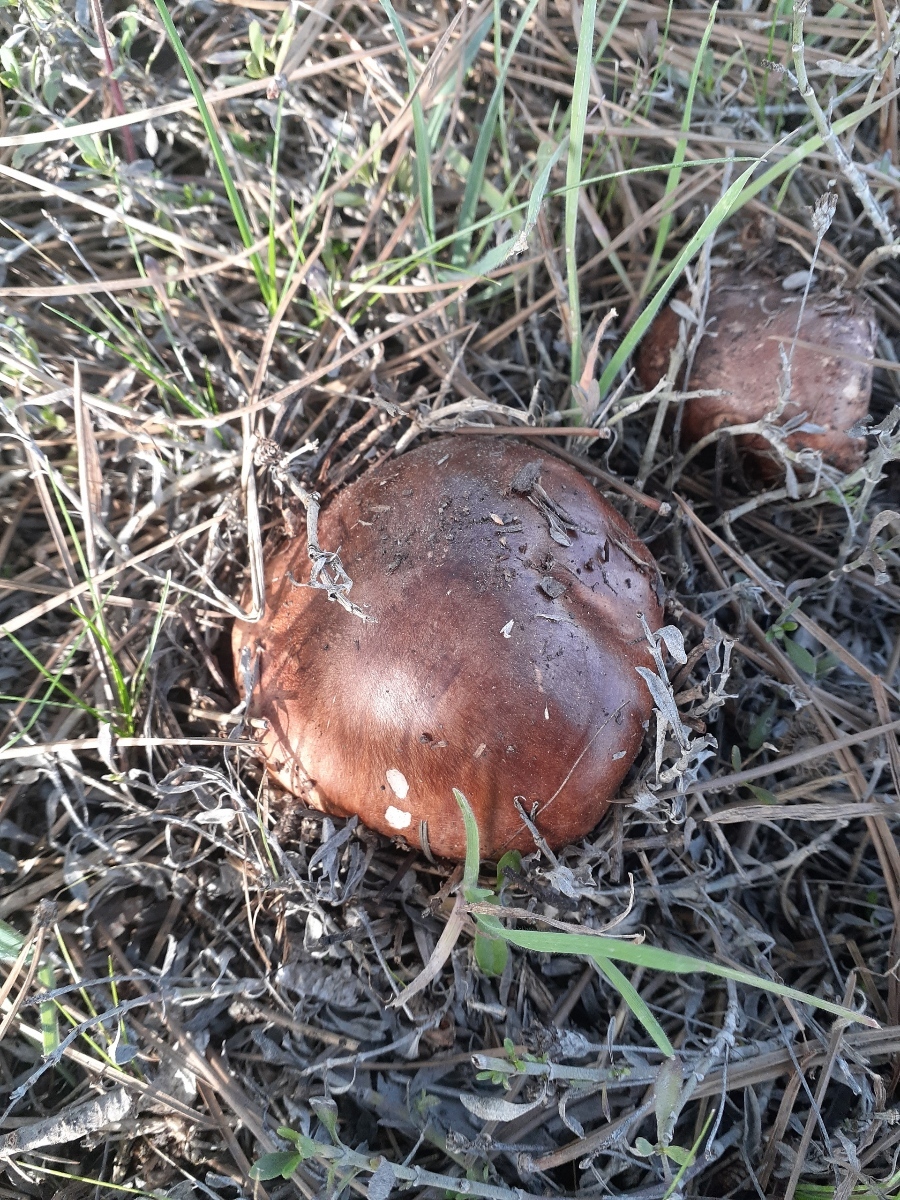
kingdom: Fungi
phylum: Basidiomycota
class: Agaricomycetes
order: Agaricales
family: Tricholomataceae
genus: Tricholoma
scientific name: Tricholoma fracticum
